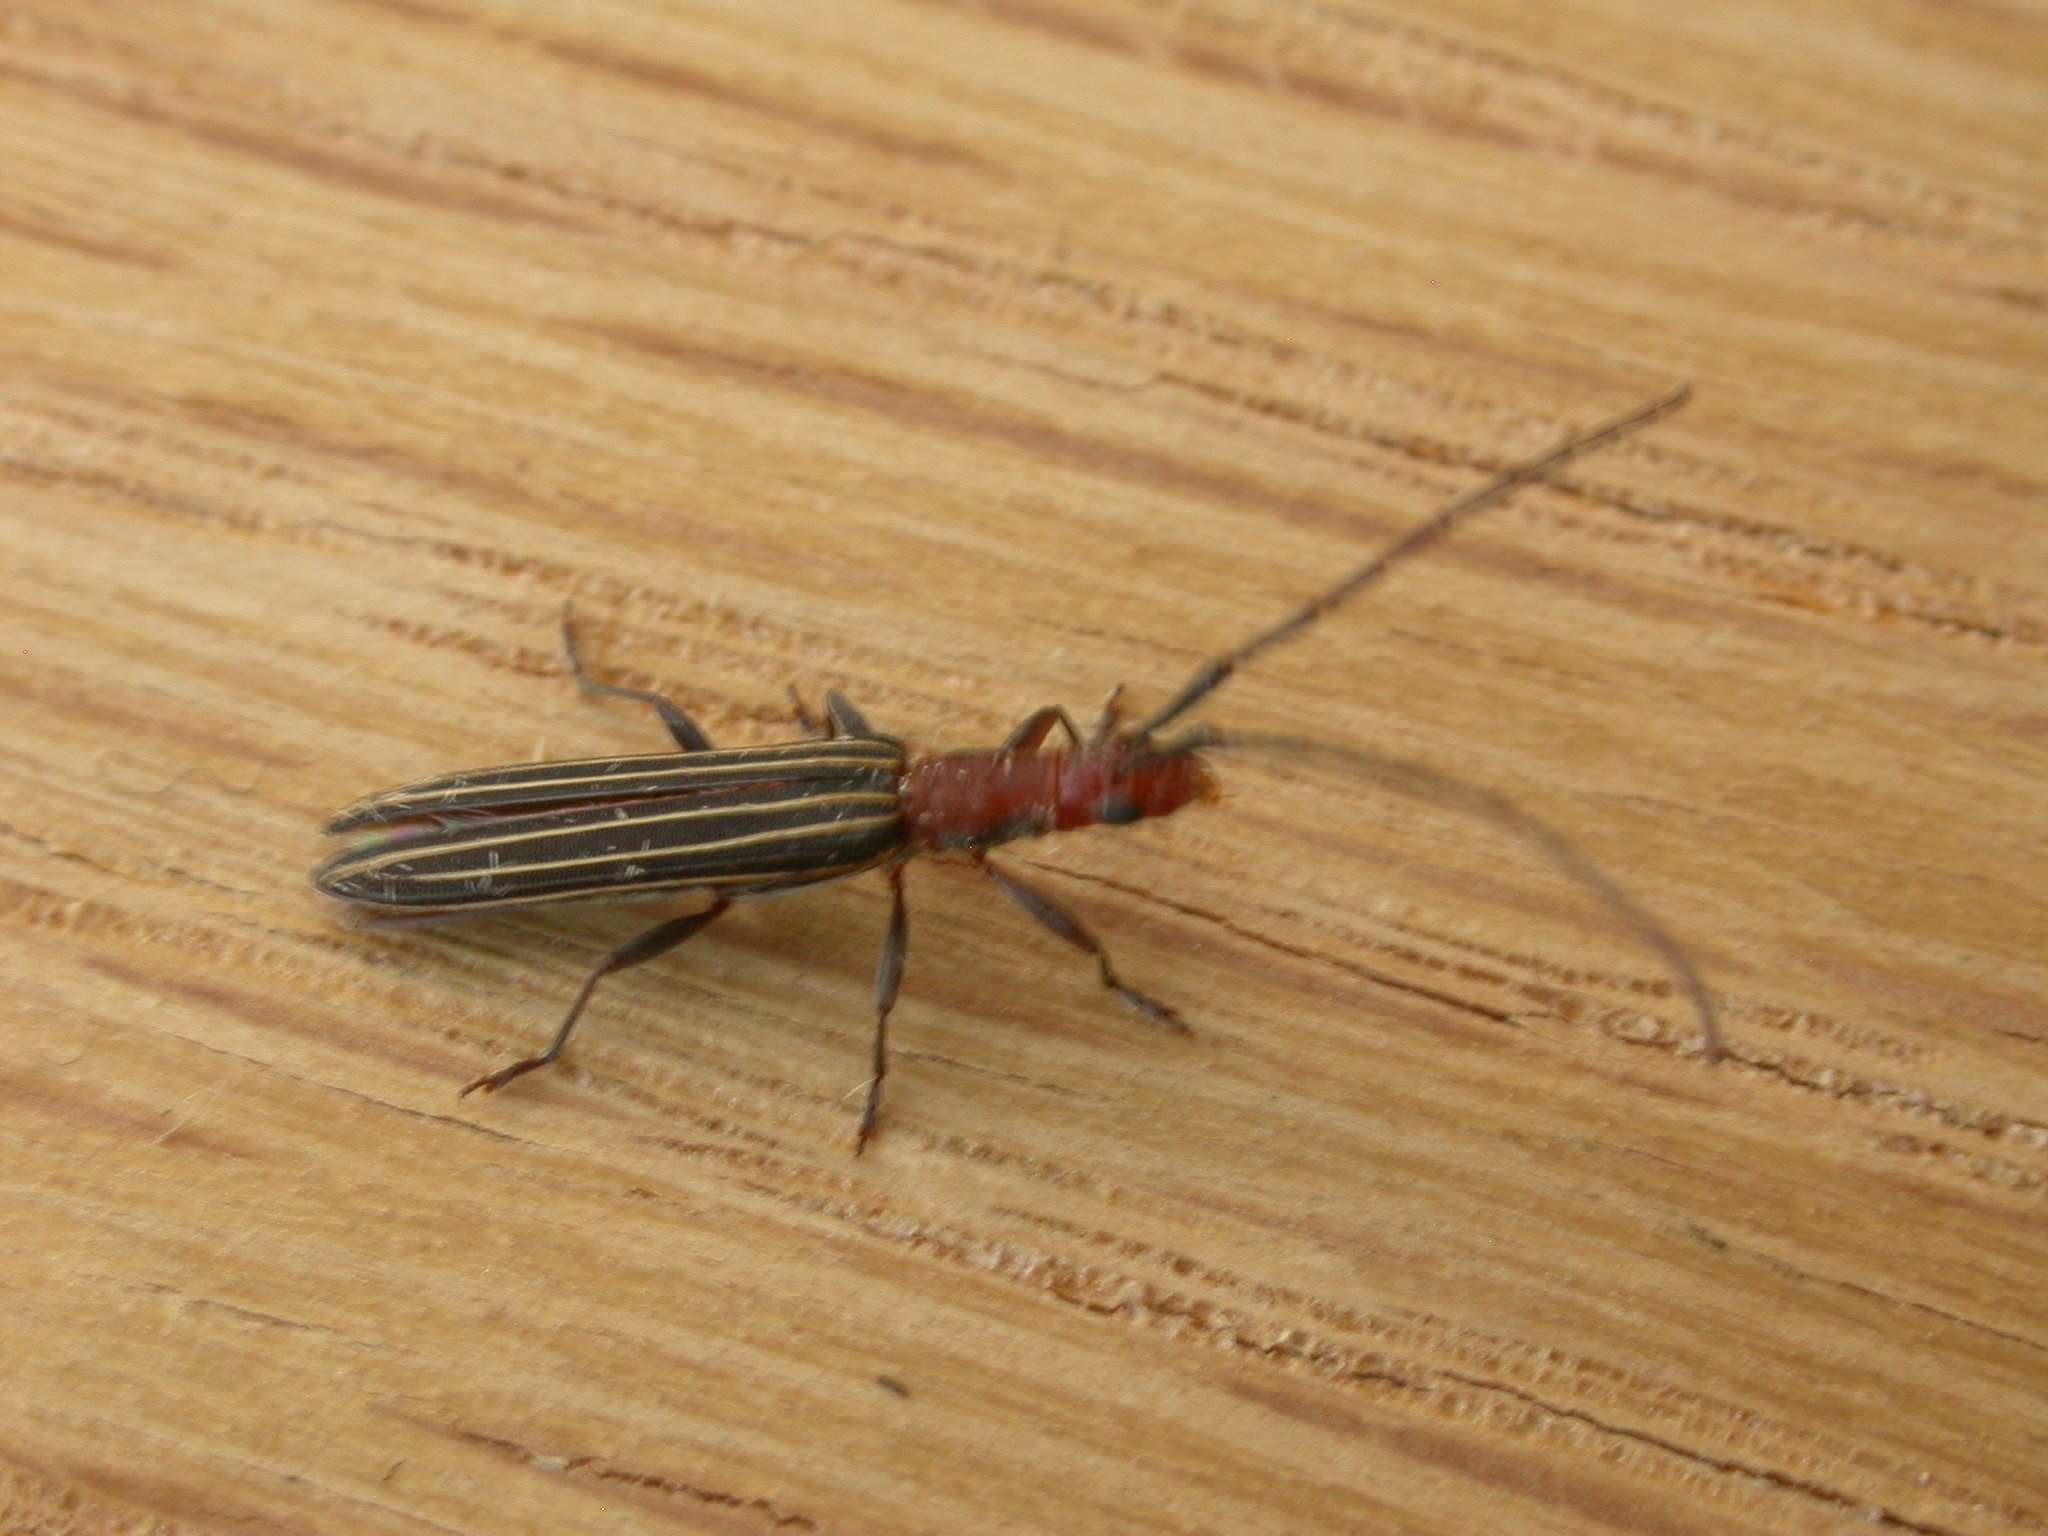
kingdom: Animalia
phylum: Arthropoda
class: Insecta
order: Coleoptera
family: Cerambycidae
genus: Syllitus
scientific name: Syllitus rectus
